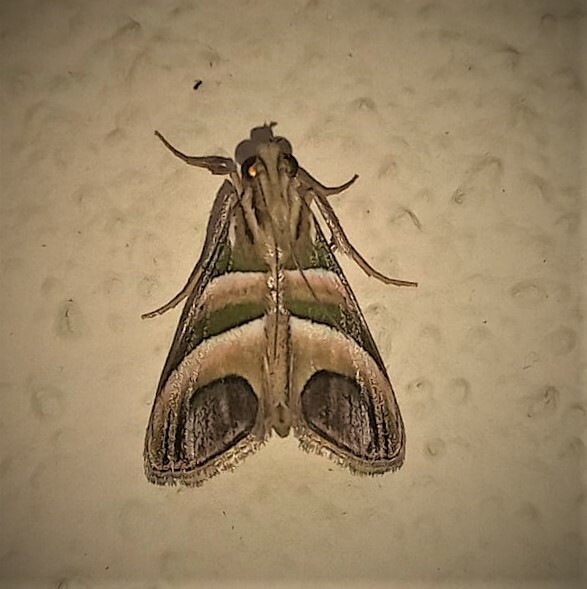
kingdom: Animalia
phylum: Arthropoda
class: Insecta
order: Lepidoptera
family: Pyralidae
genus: Incarcha
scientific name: Incarcha argentilinea
